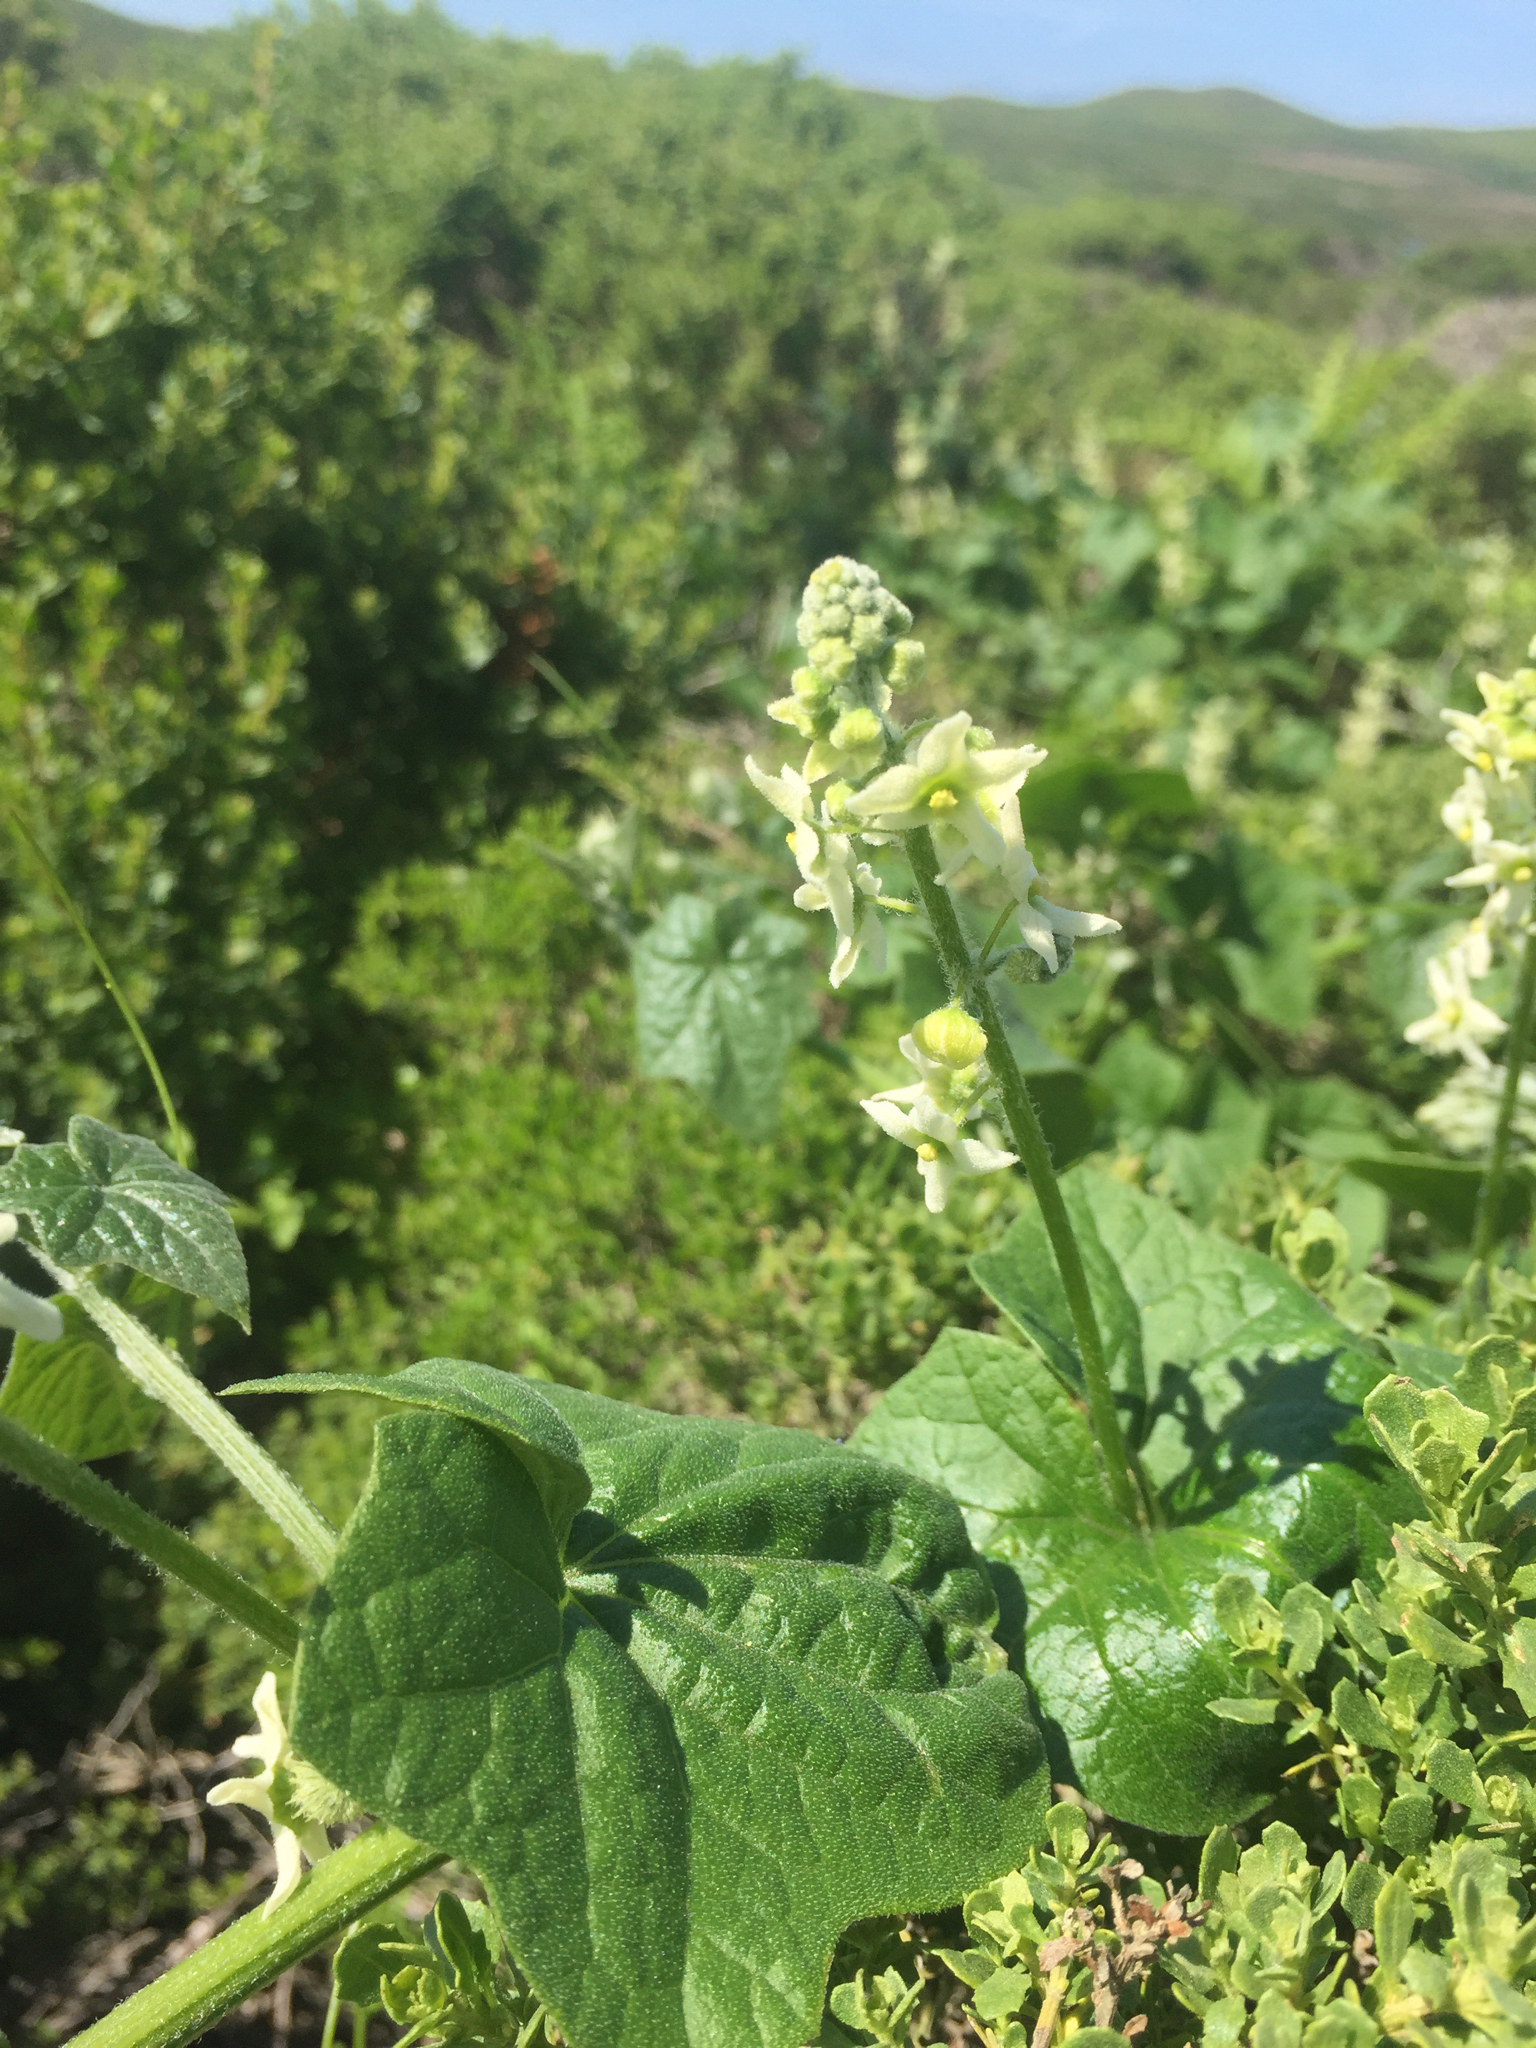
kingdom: Plantae
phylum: Tracheophyta
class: Magnoliopsida
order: Cucurbitales
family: Cucurbitaceae
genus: Marah
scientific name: Marah fabacea
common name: California manroot
